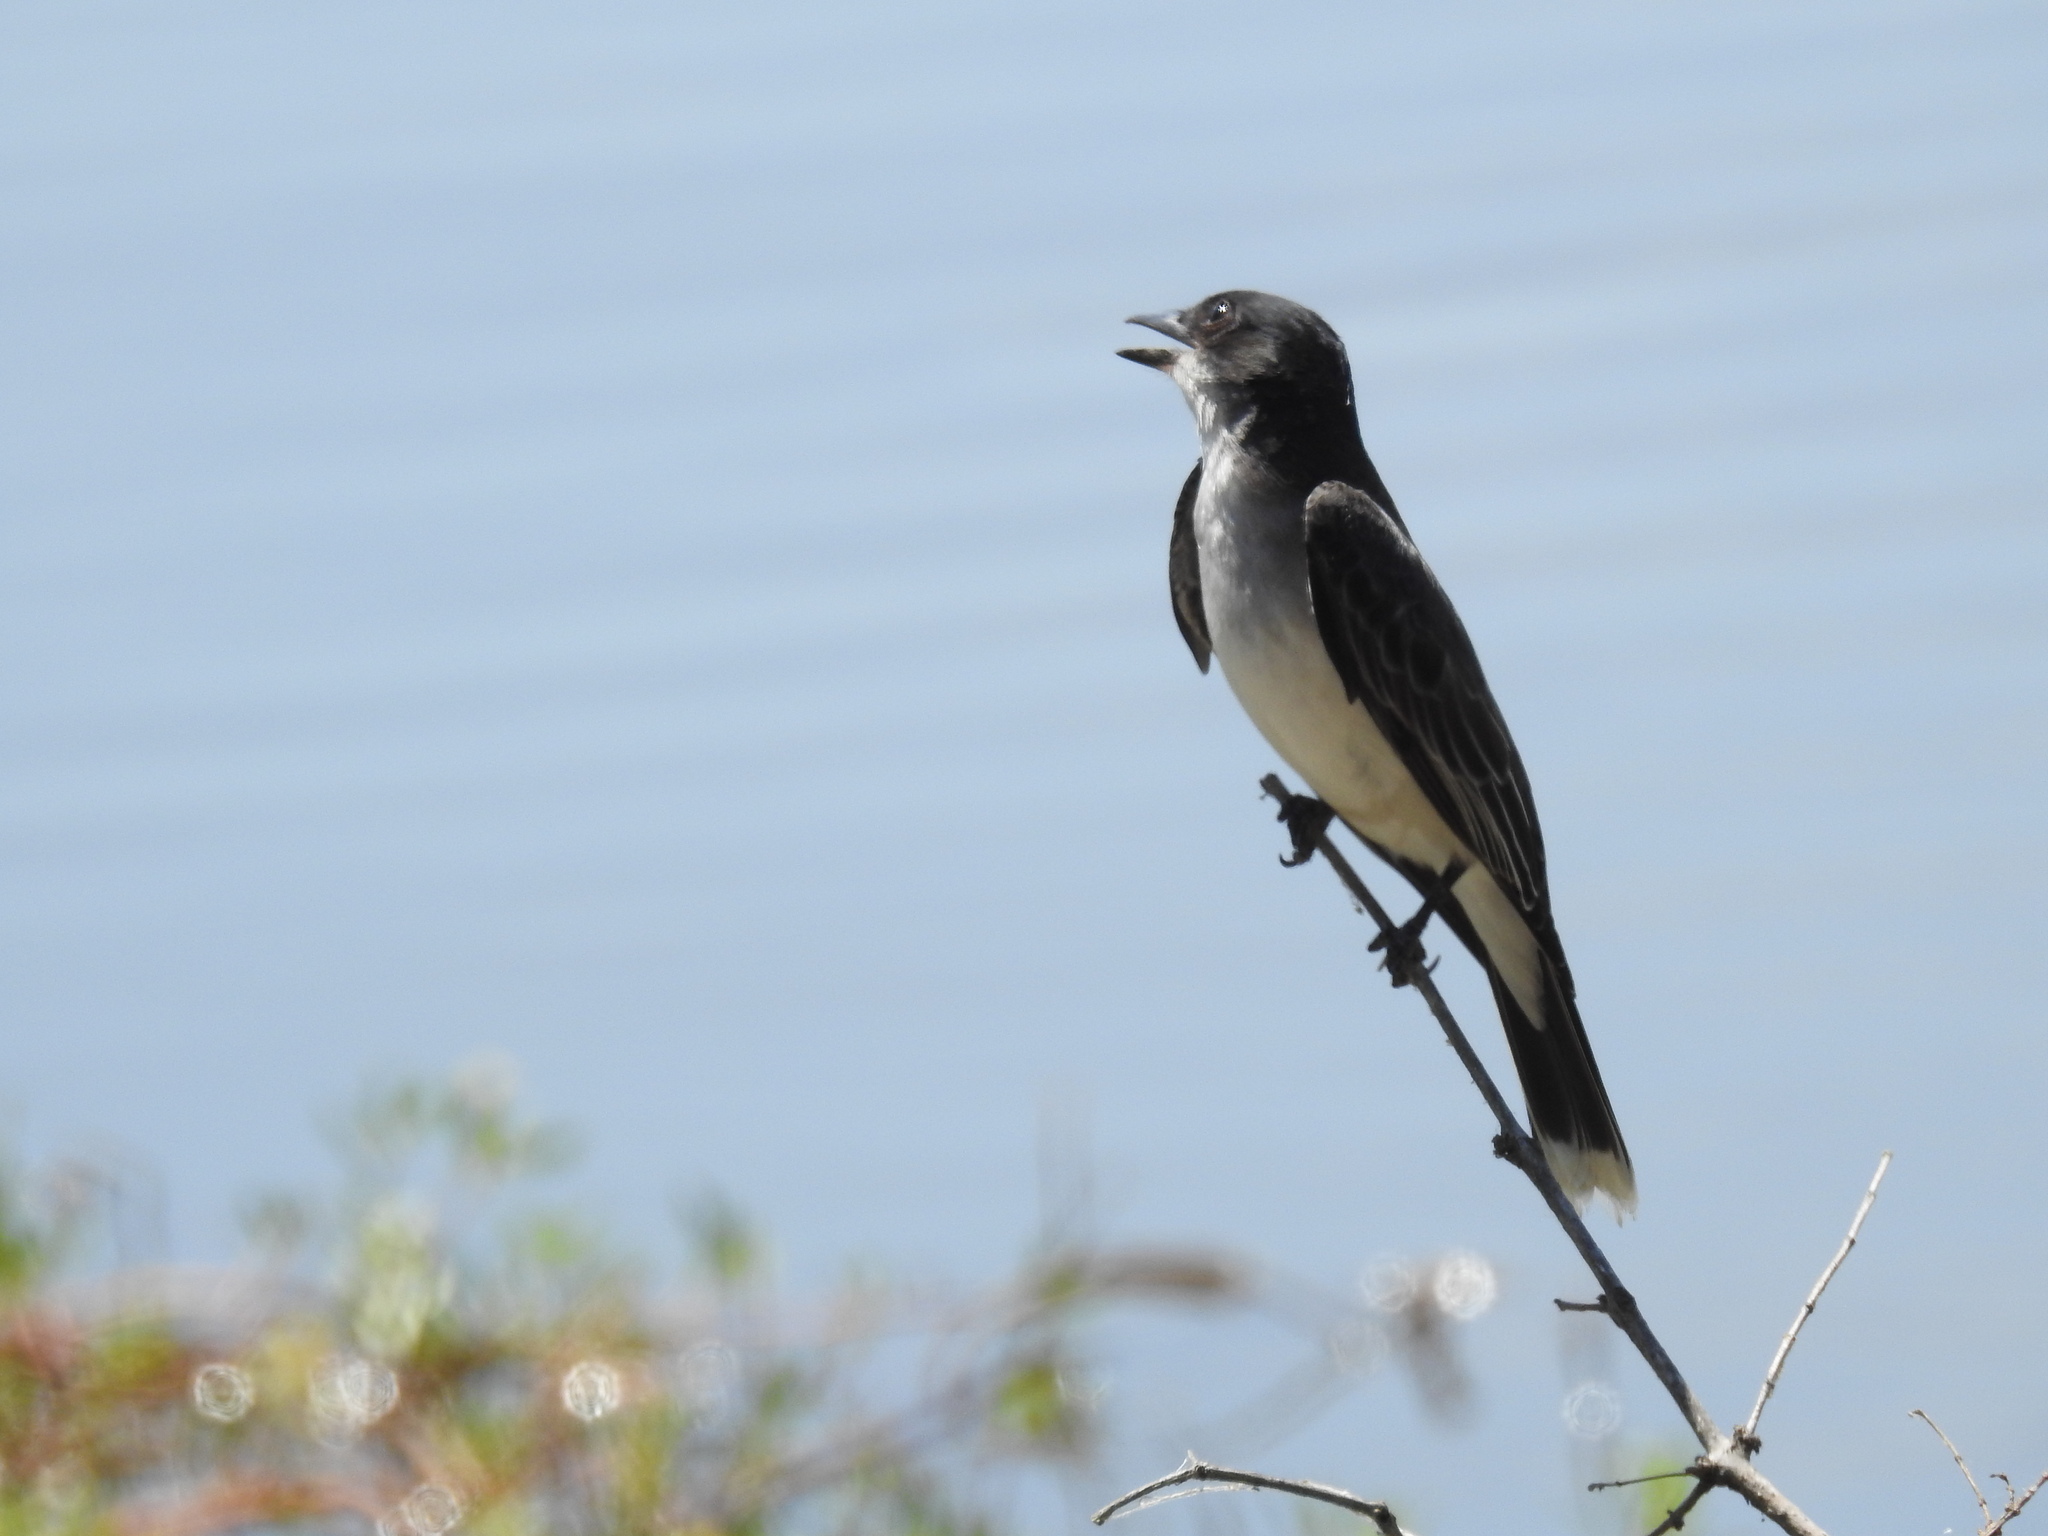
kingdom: Animalia
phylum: Chordata
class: Aves
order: Passeriformes
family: Tyrannidae
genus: Tyrannus
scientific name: Tyrannus tyrannus
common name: Eastern kingbird
